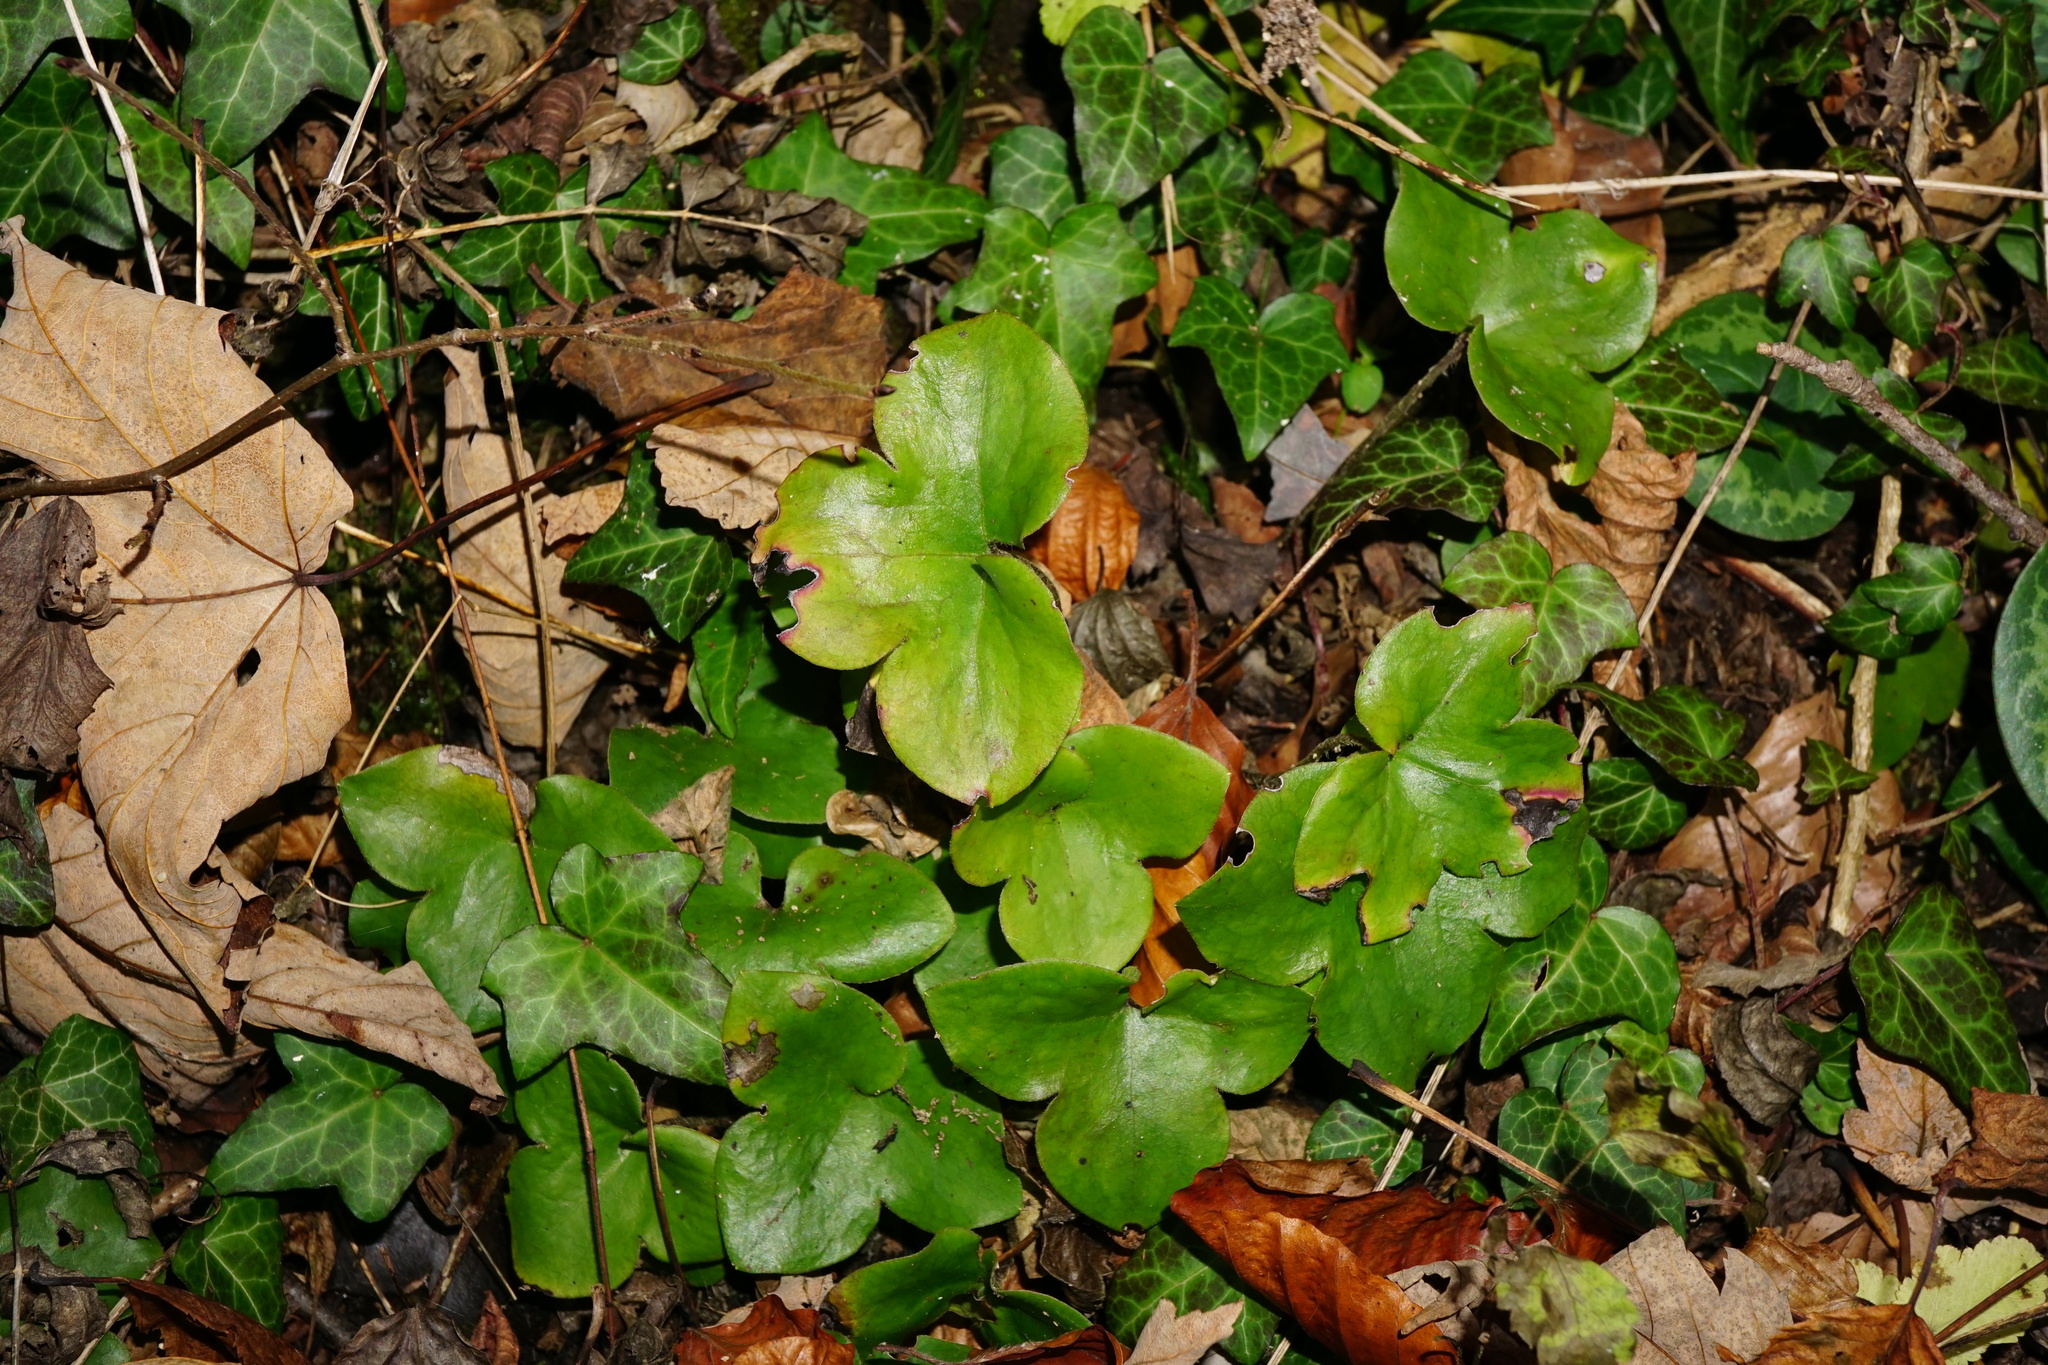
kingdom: Plantae
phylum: Tracheophyta
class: Magnoliopsida
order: Ranunculales
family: Ranunculaceae
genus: Hepatica
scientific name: Hepatica nobilis
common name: Liverleaf
